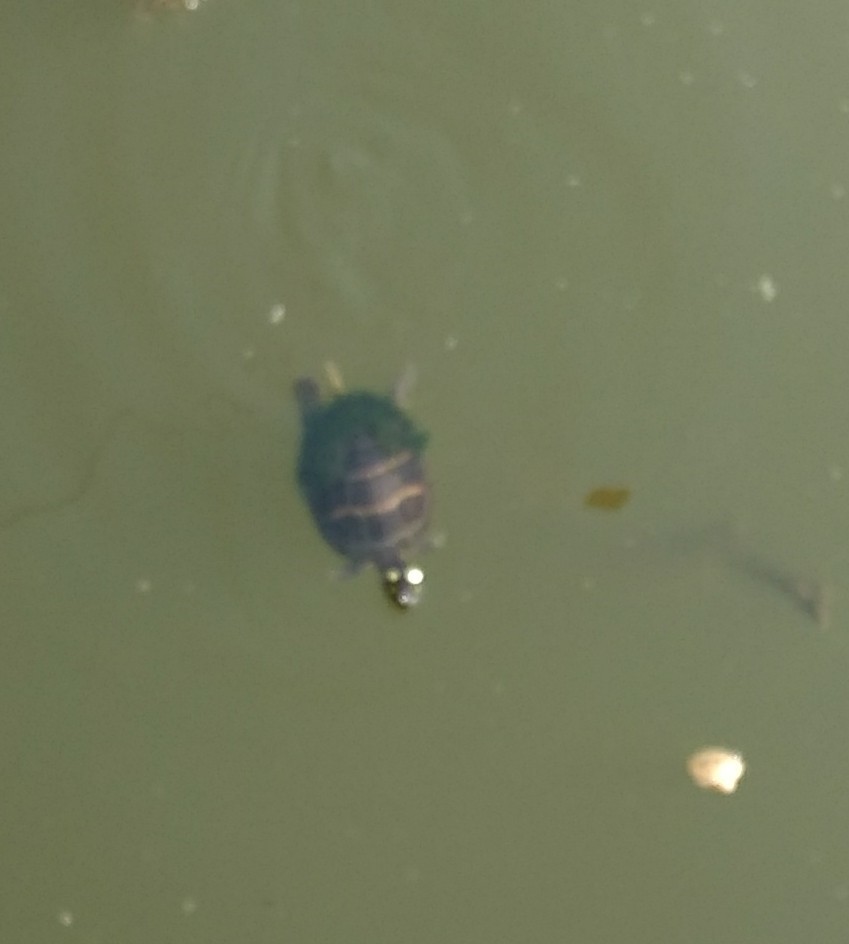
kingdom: Animalia
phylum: Chordata
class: Testudines
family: Emydidae
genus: Chrysemys
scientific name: Chrysemys picta
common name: Painted turtle
